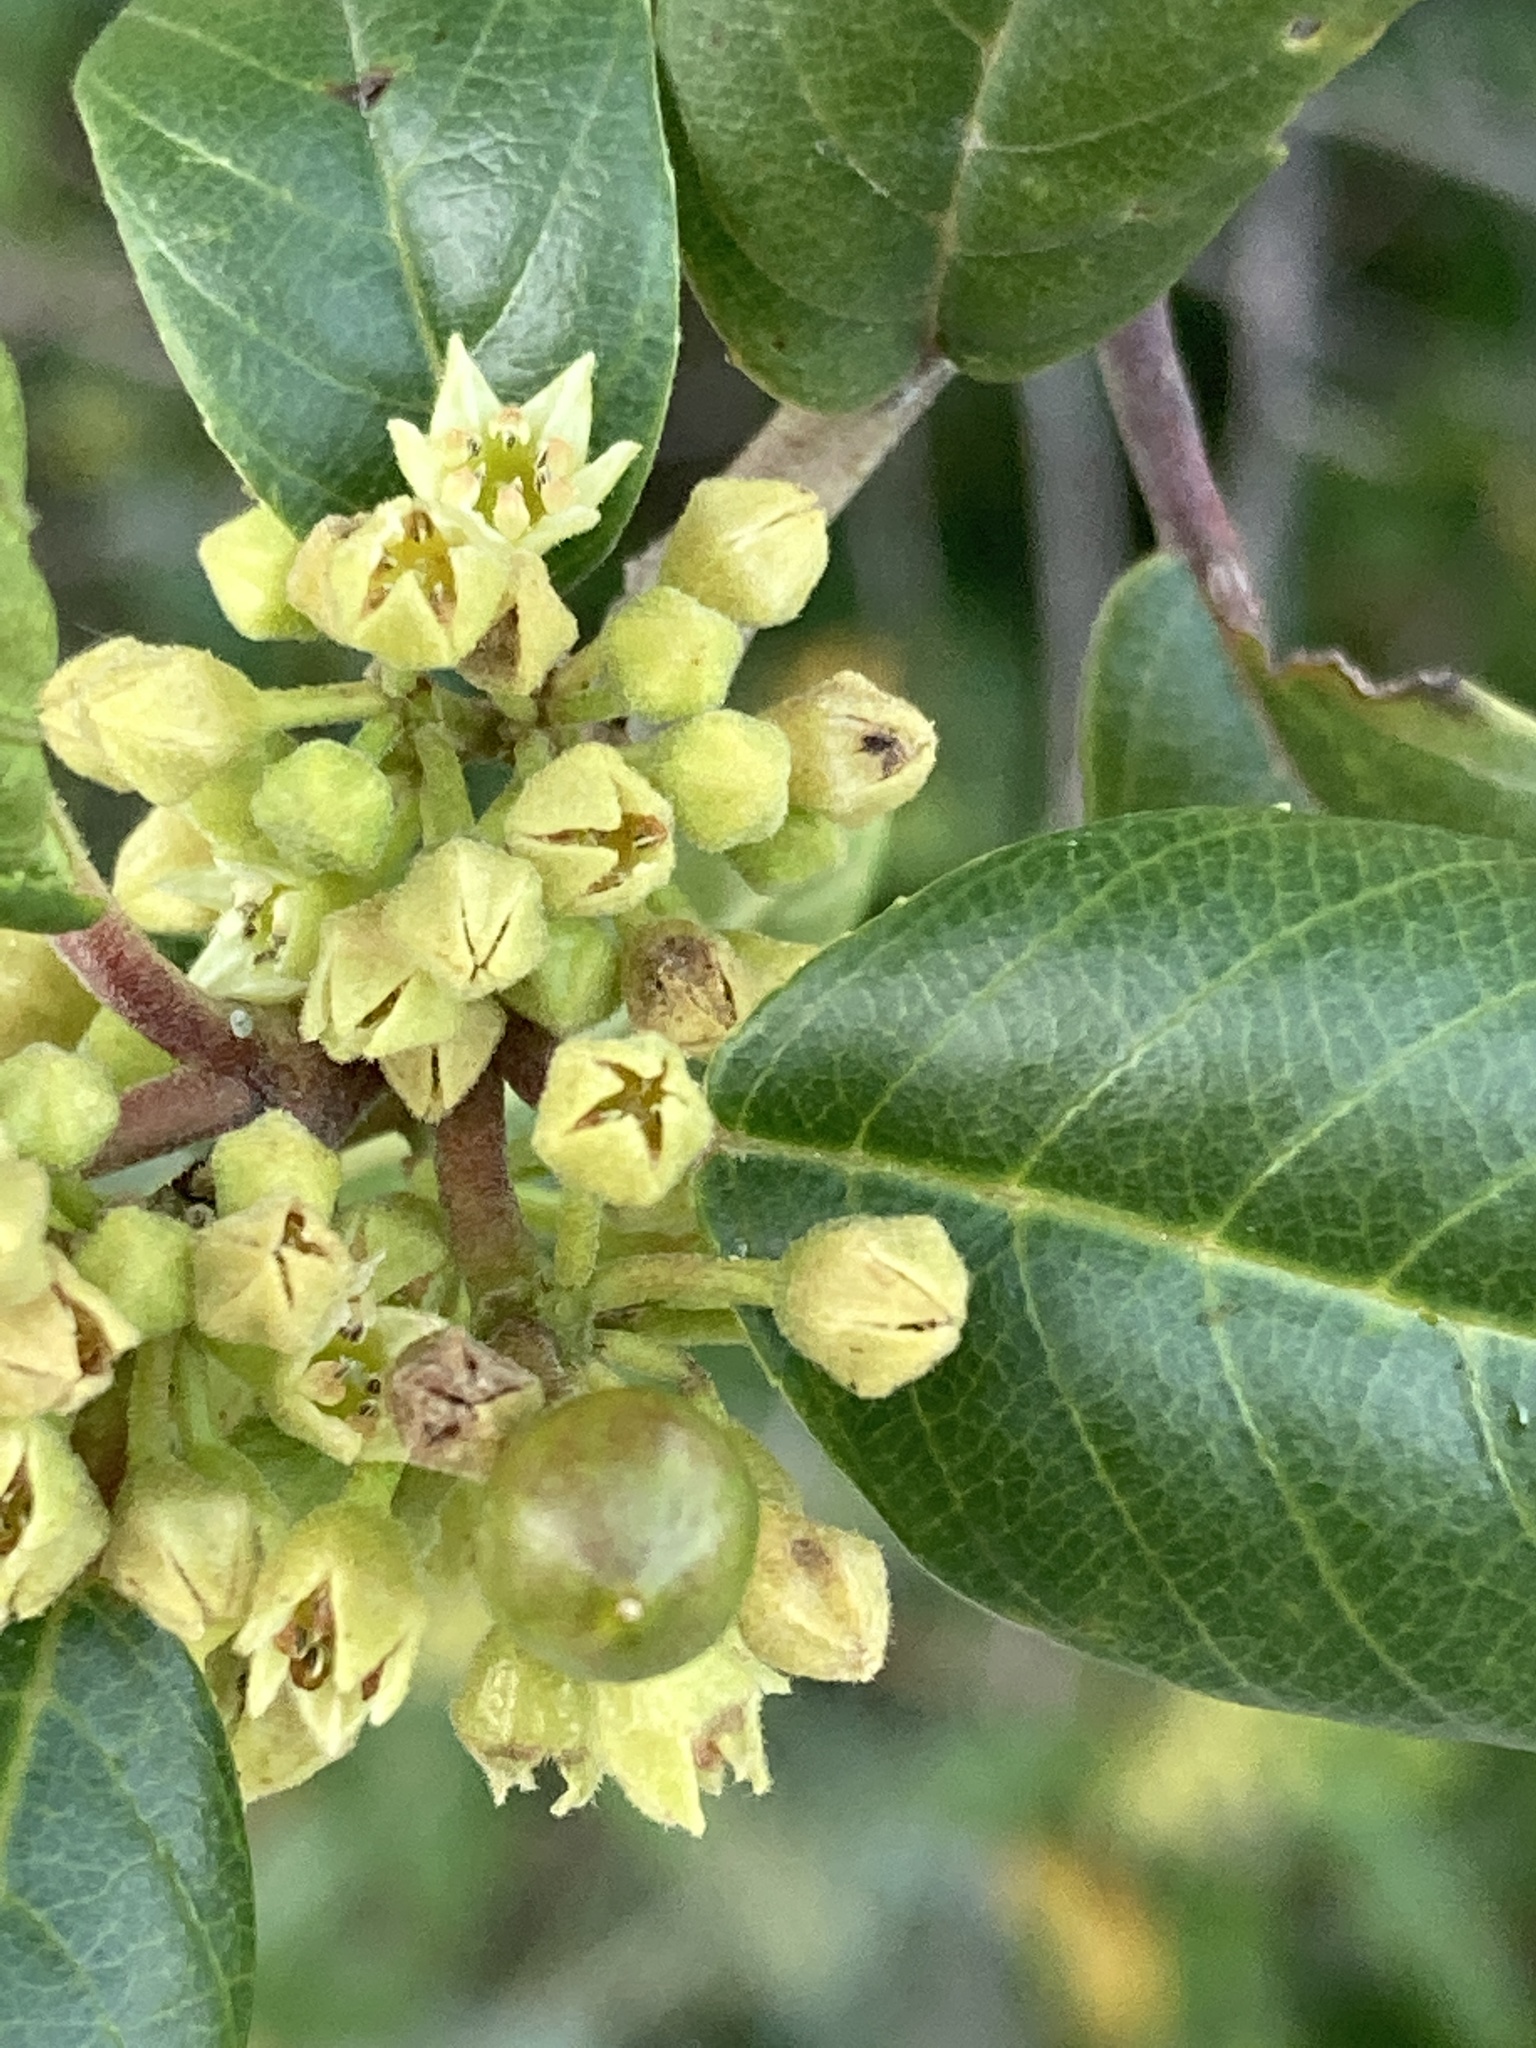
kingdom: Plantae
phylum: Tracheophyta
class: Magnoliopsida
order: Rosales
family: Rhamnaceae
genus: Frangula
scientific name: Frangula californica
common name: California buckthorn
